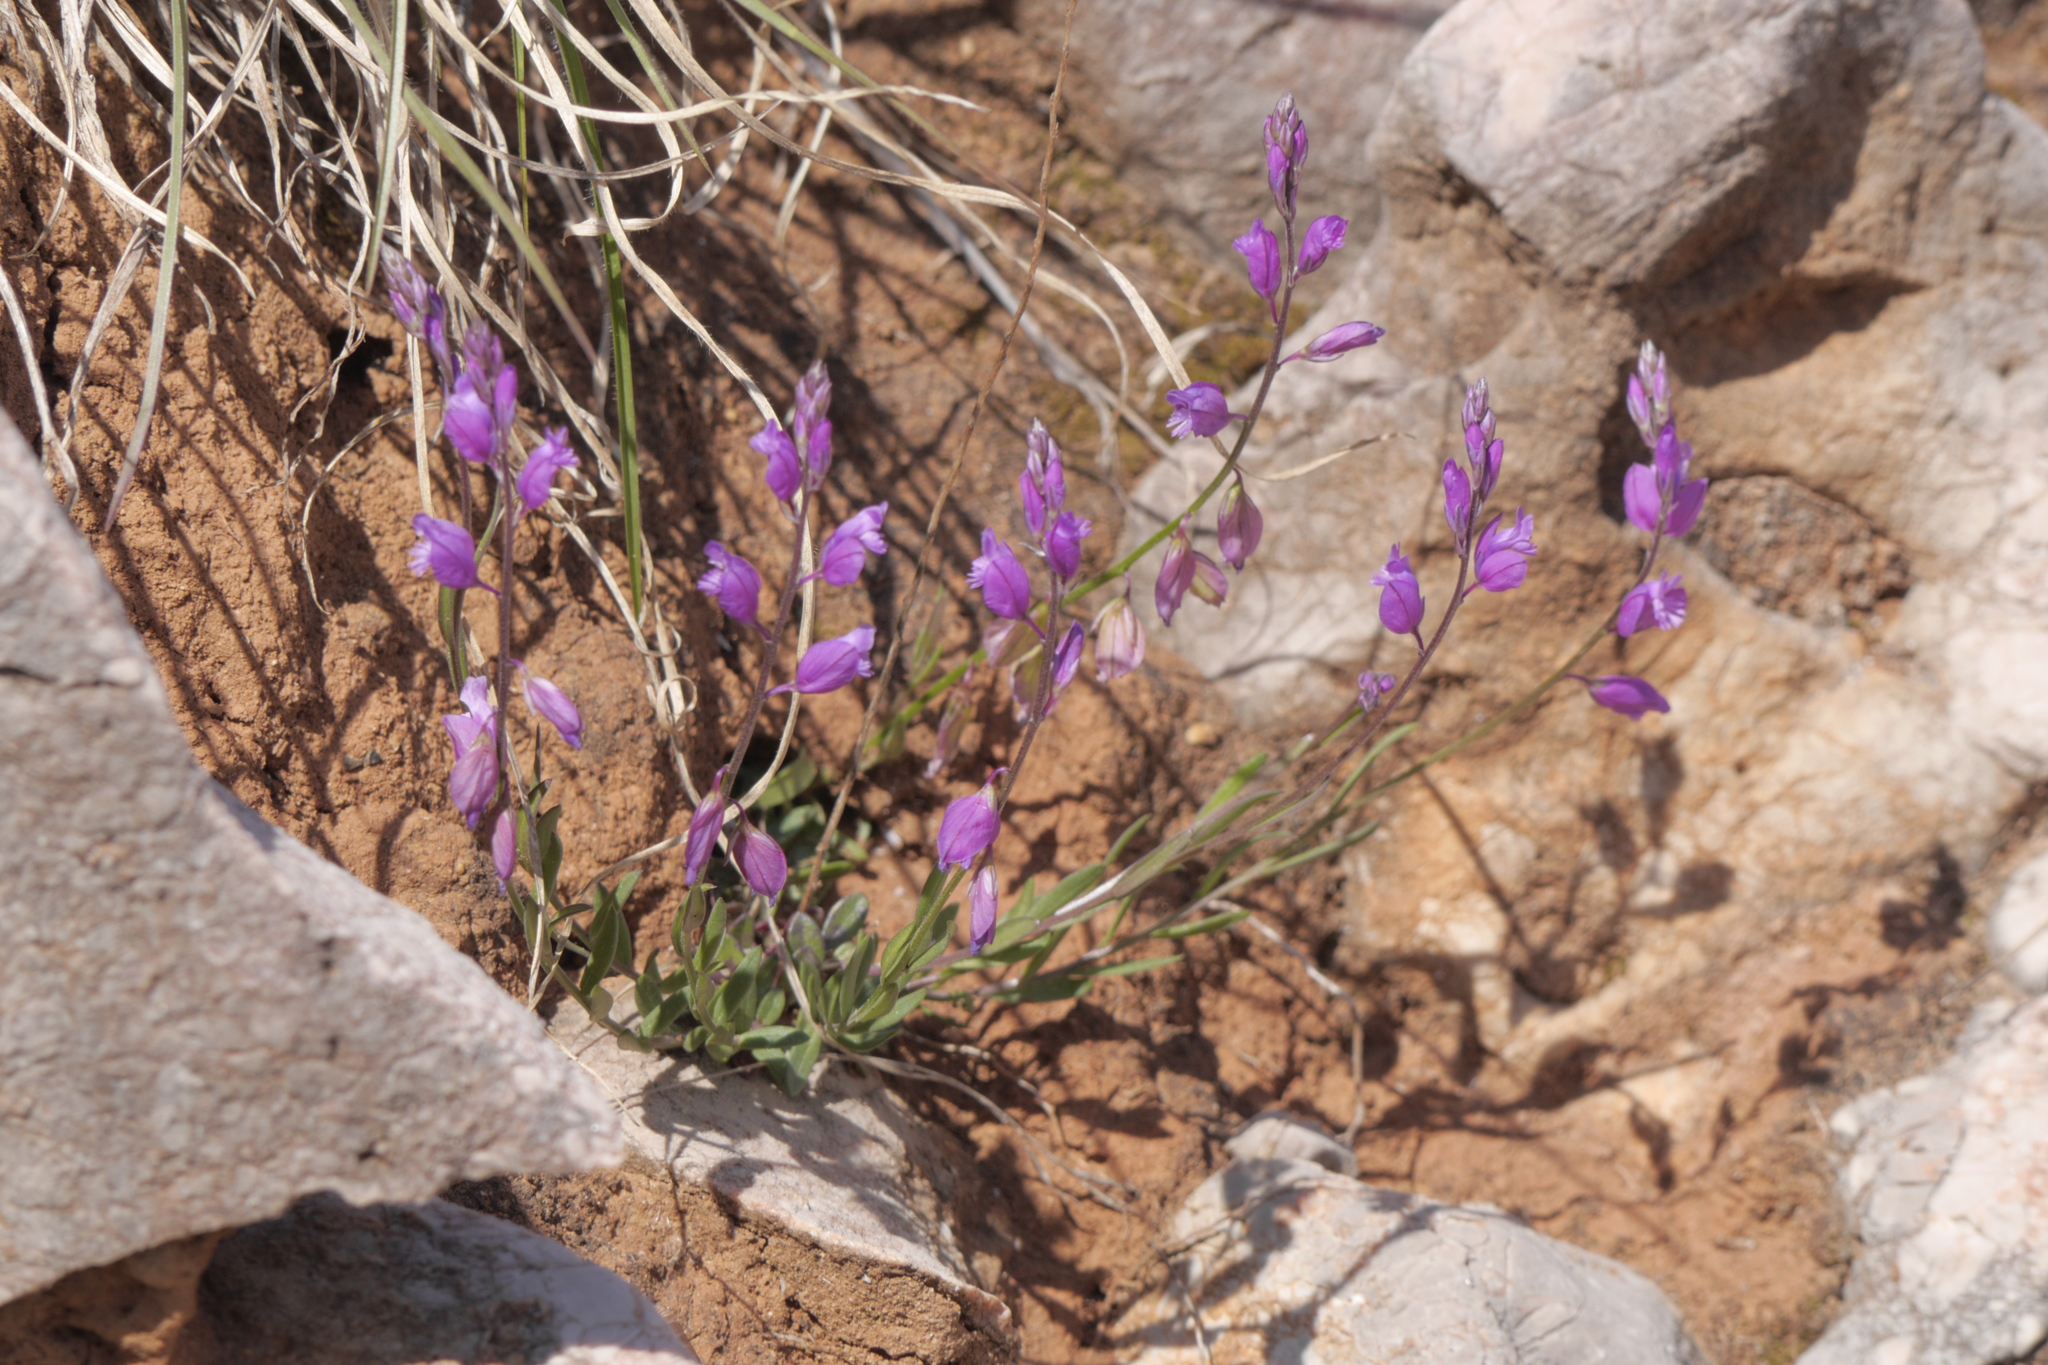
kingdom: Plantae
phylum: Tracheophyta
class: Magnoliopsida
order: Fabales
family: Polygalaceae
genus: Polygala
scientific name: Polygala nicaeensis
